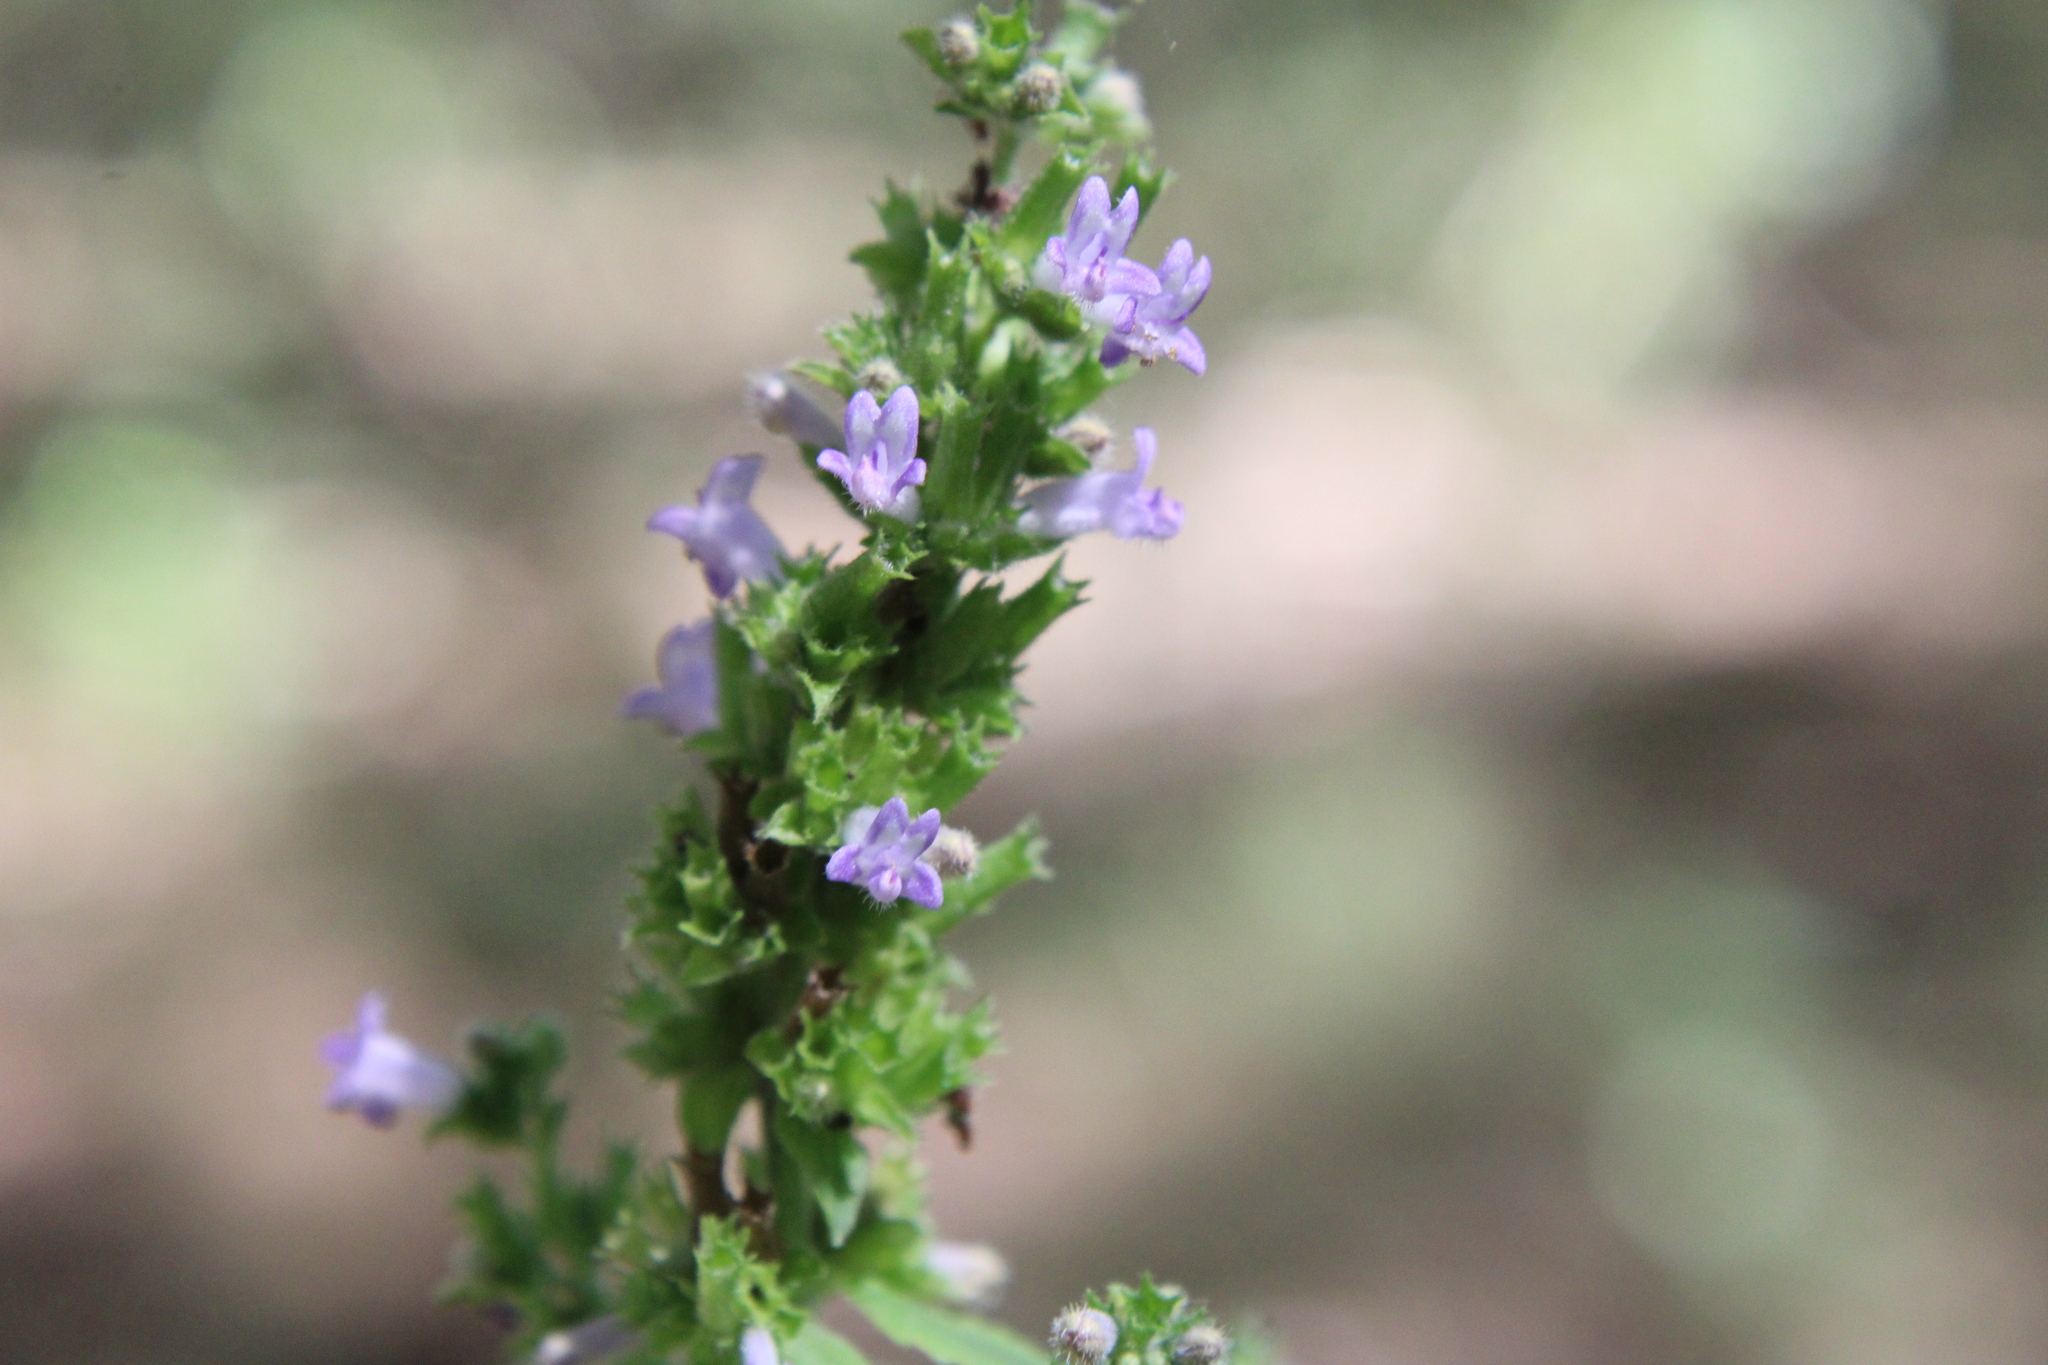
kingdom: Plantae
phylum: Tracheophyta
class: Magnoliopsida
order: Lamiales
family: Lamiaceae
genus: Cantinoa
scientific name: Cantinoa mutabilis
